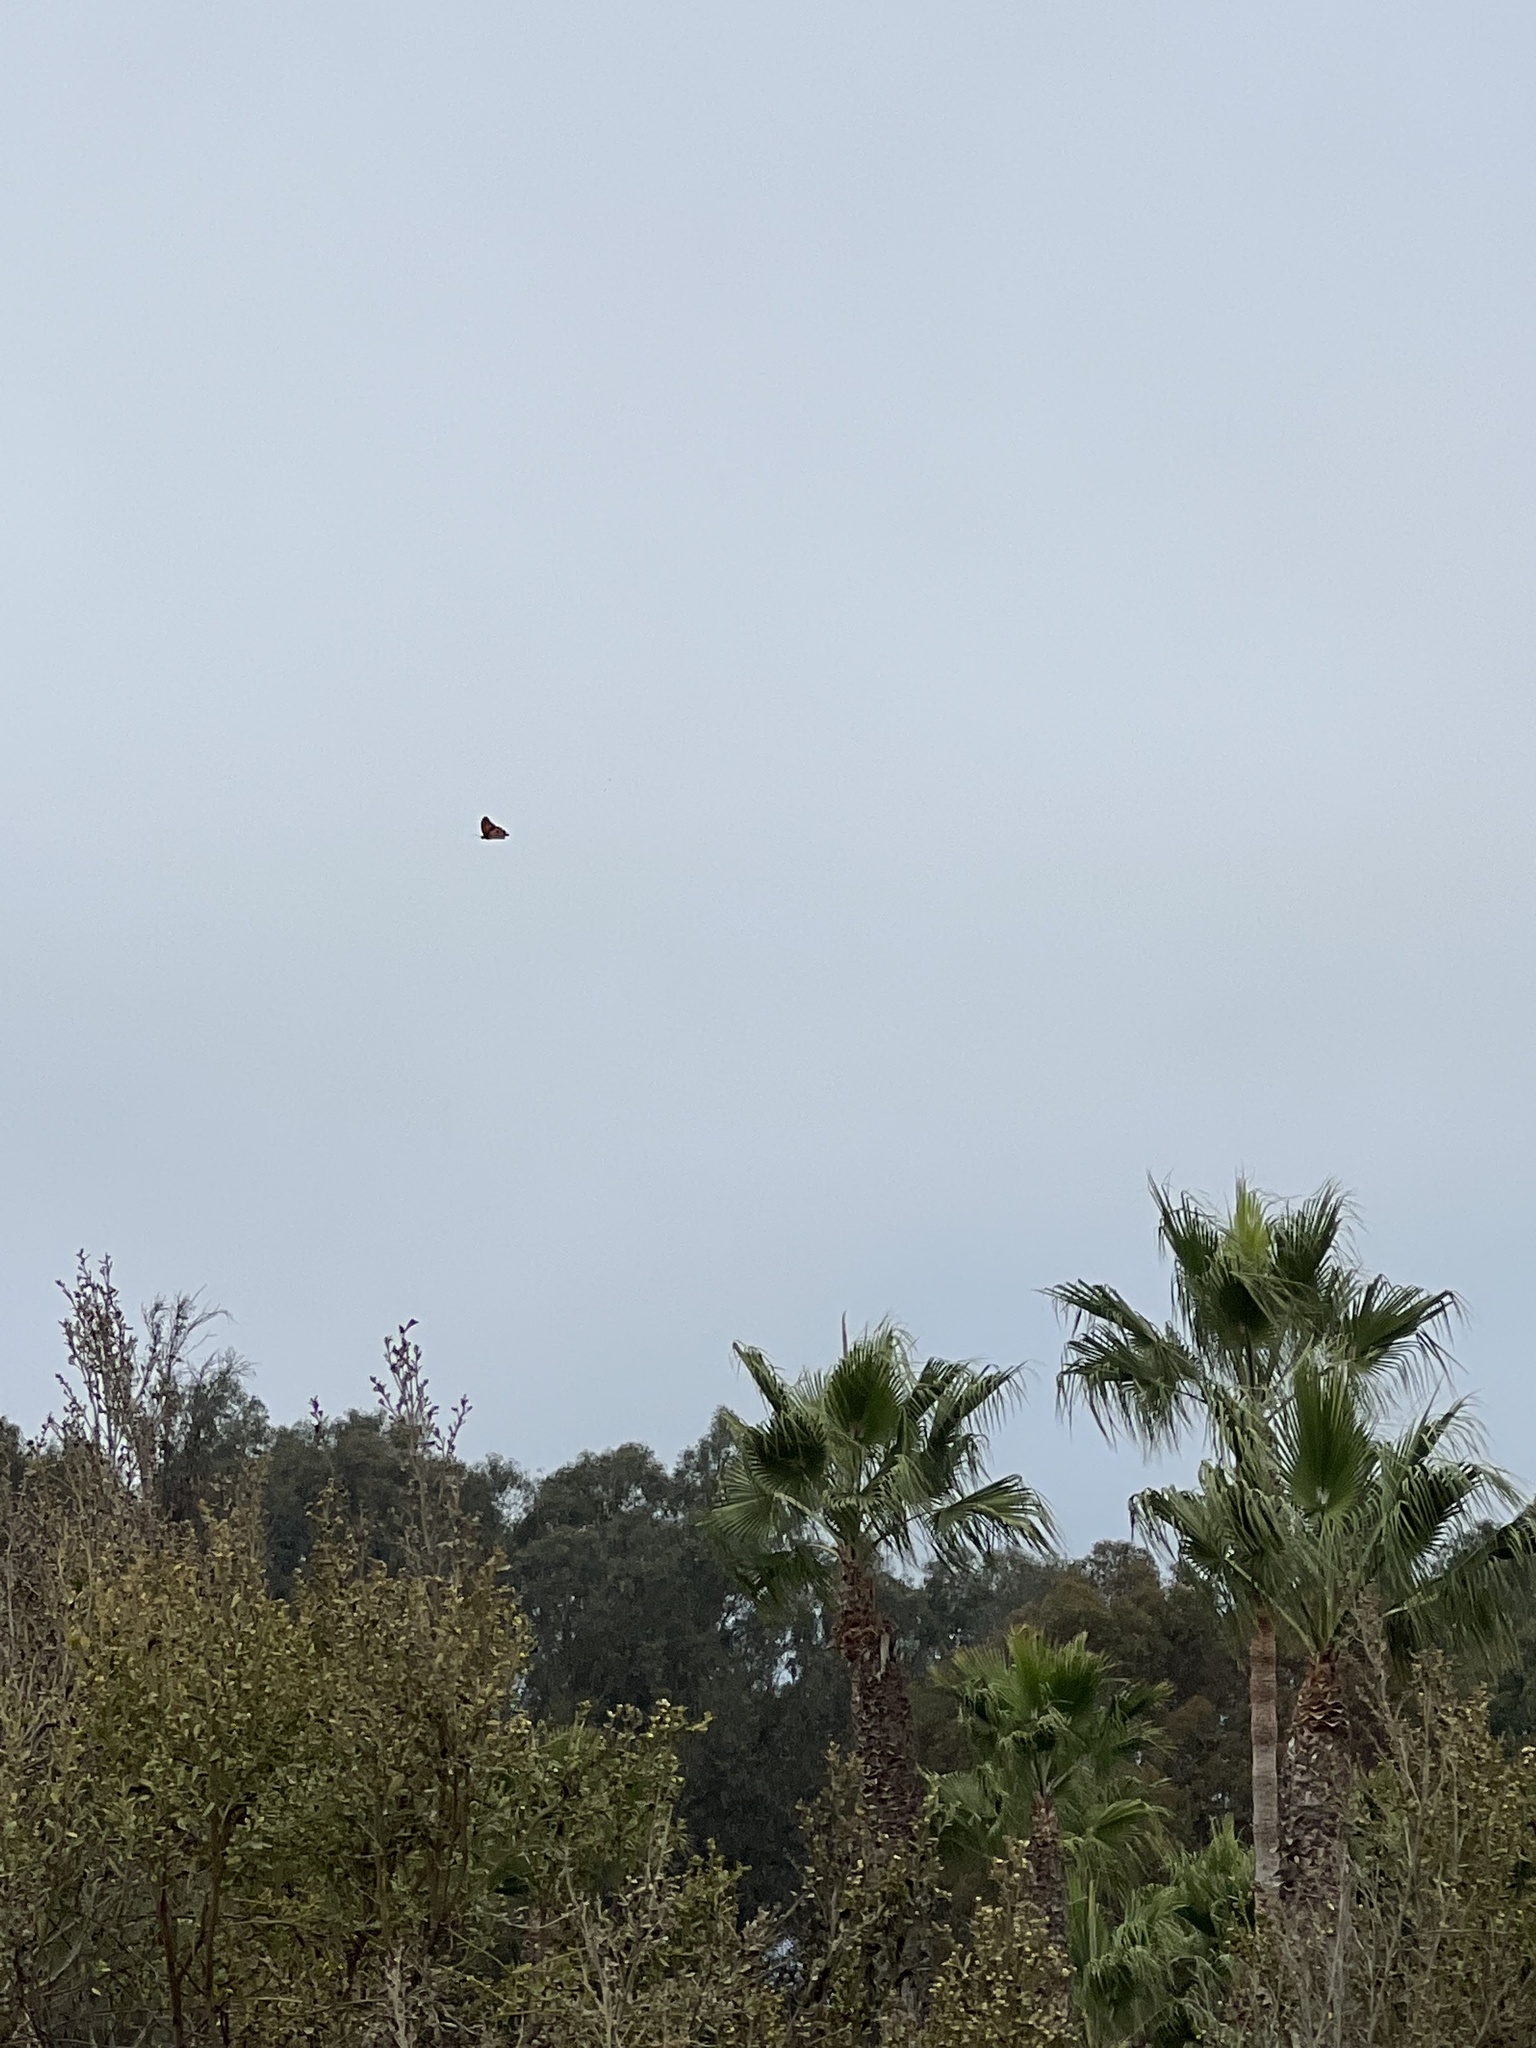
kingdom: Animalia
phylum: Arthropoda
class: Insecta
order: Lepidoptera
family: Nymphalidae
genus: Danaus
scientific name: Danaus plexippus
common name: Monarch
